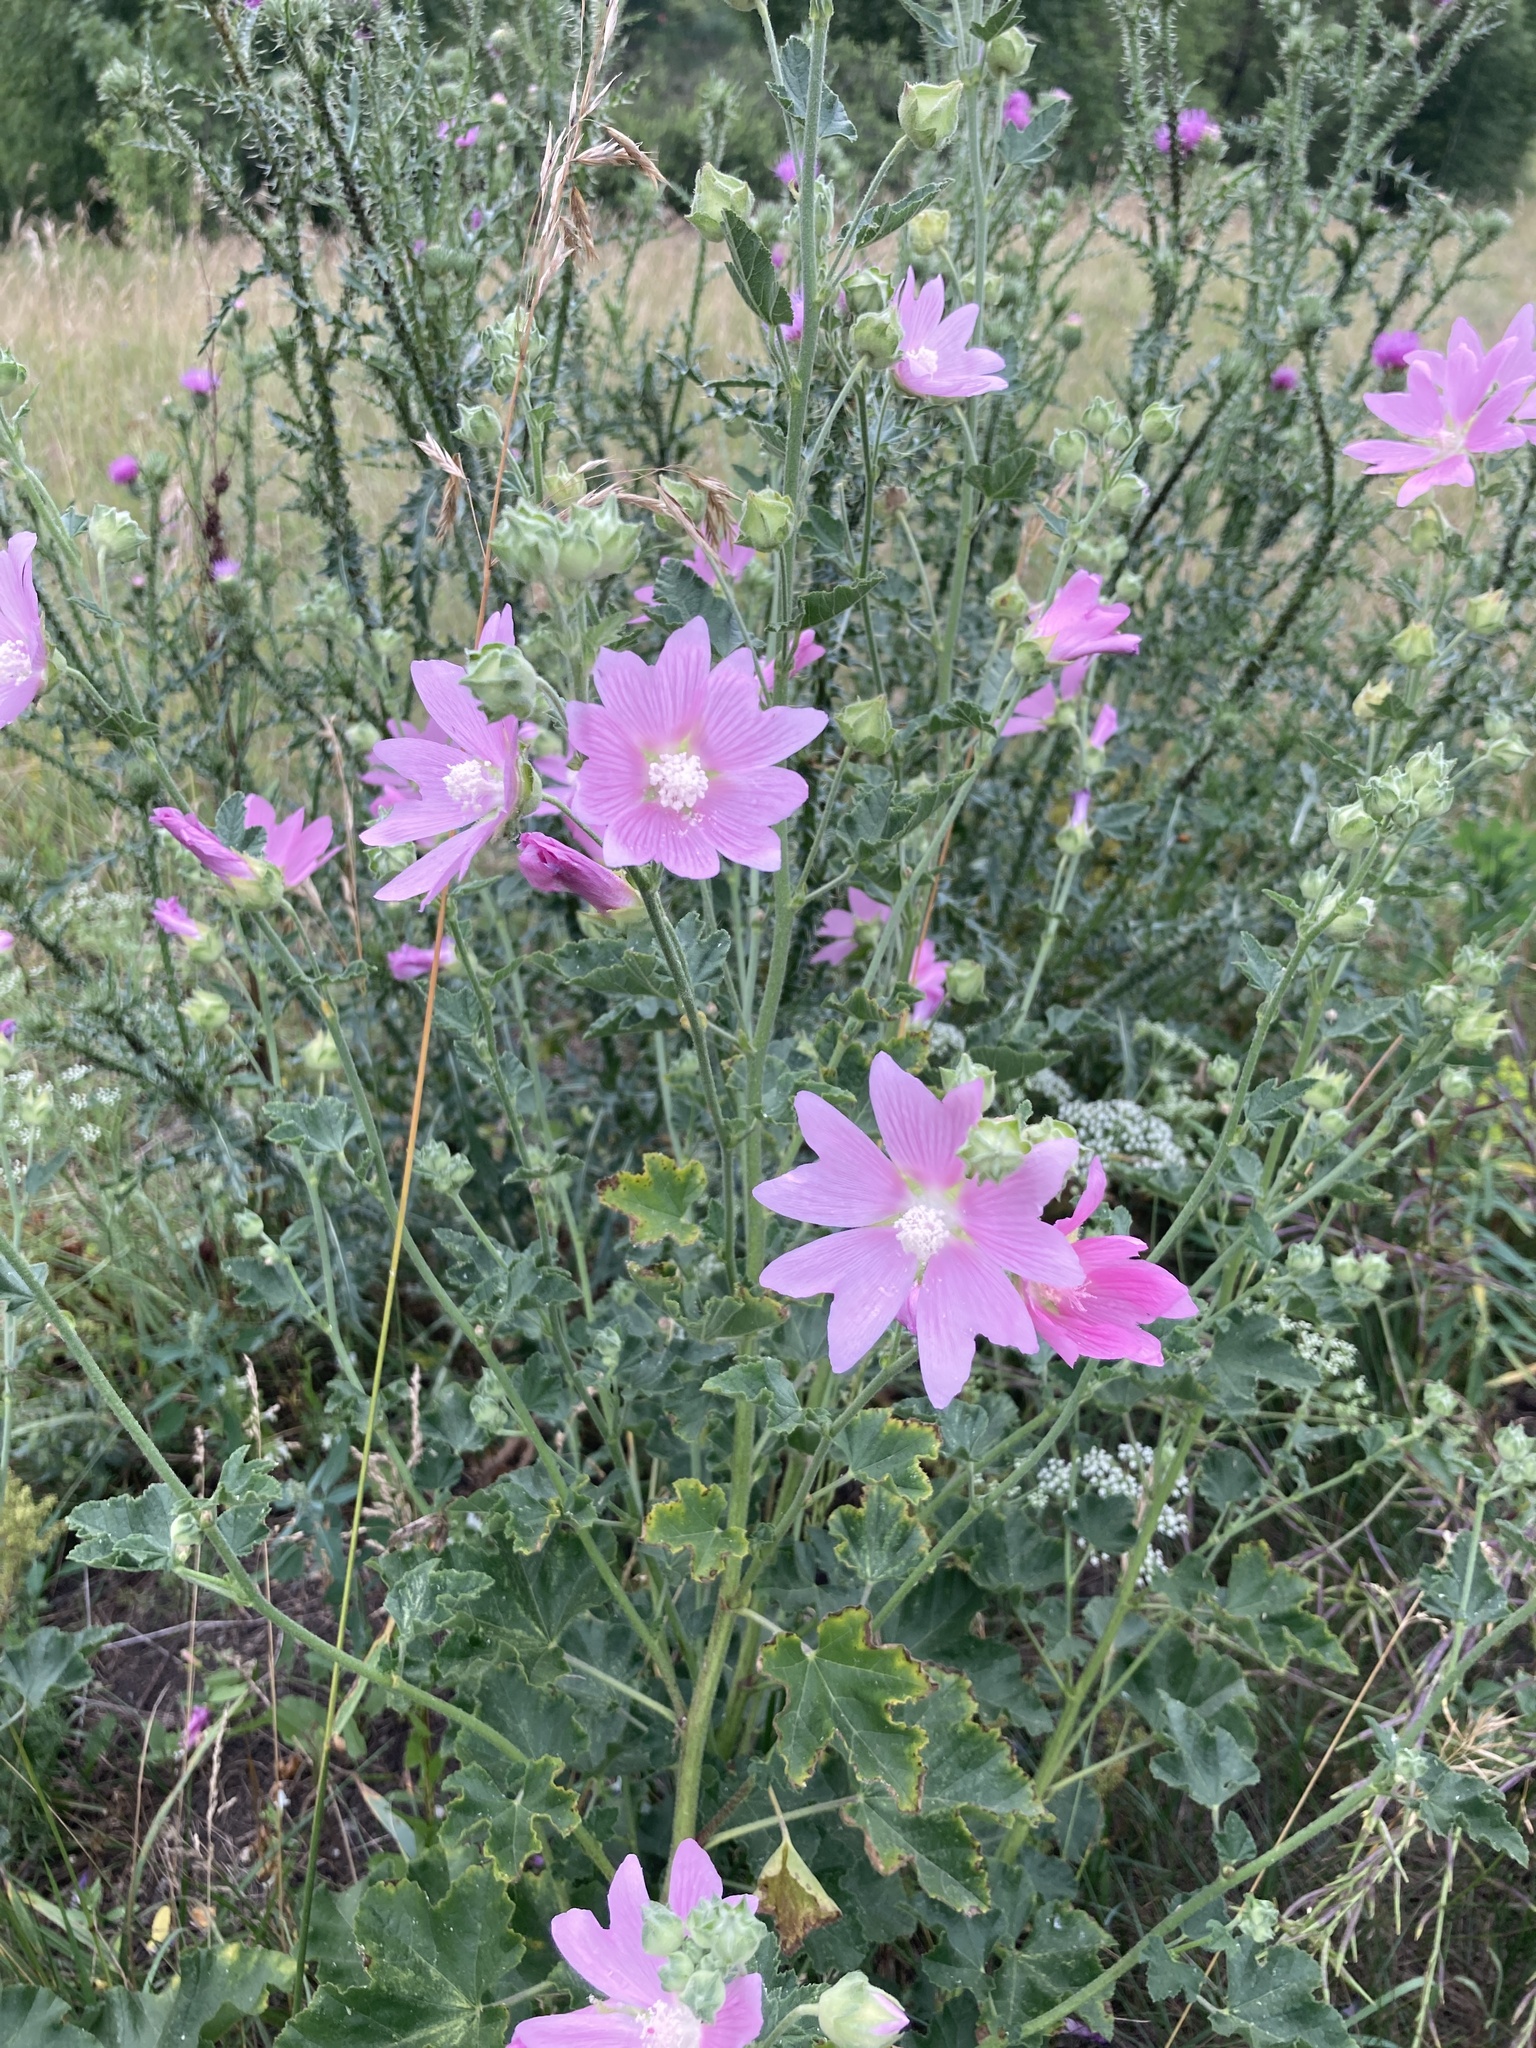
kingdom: Plantae
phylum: Tracheophyta
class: Magnoliopsida
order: Malvales
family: Malvaceae
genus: Malva
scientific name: Malva thuringiaca
